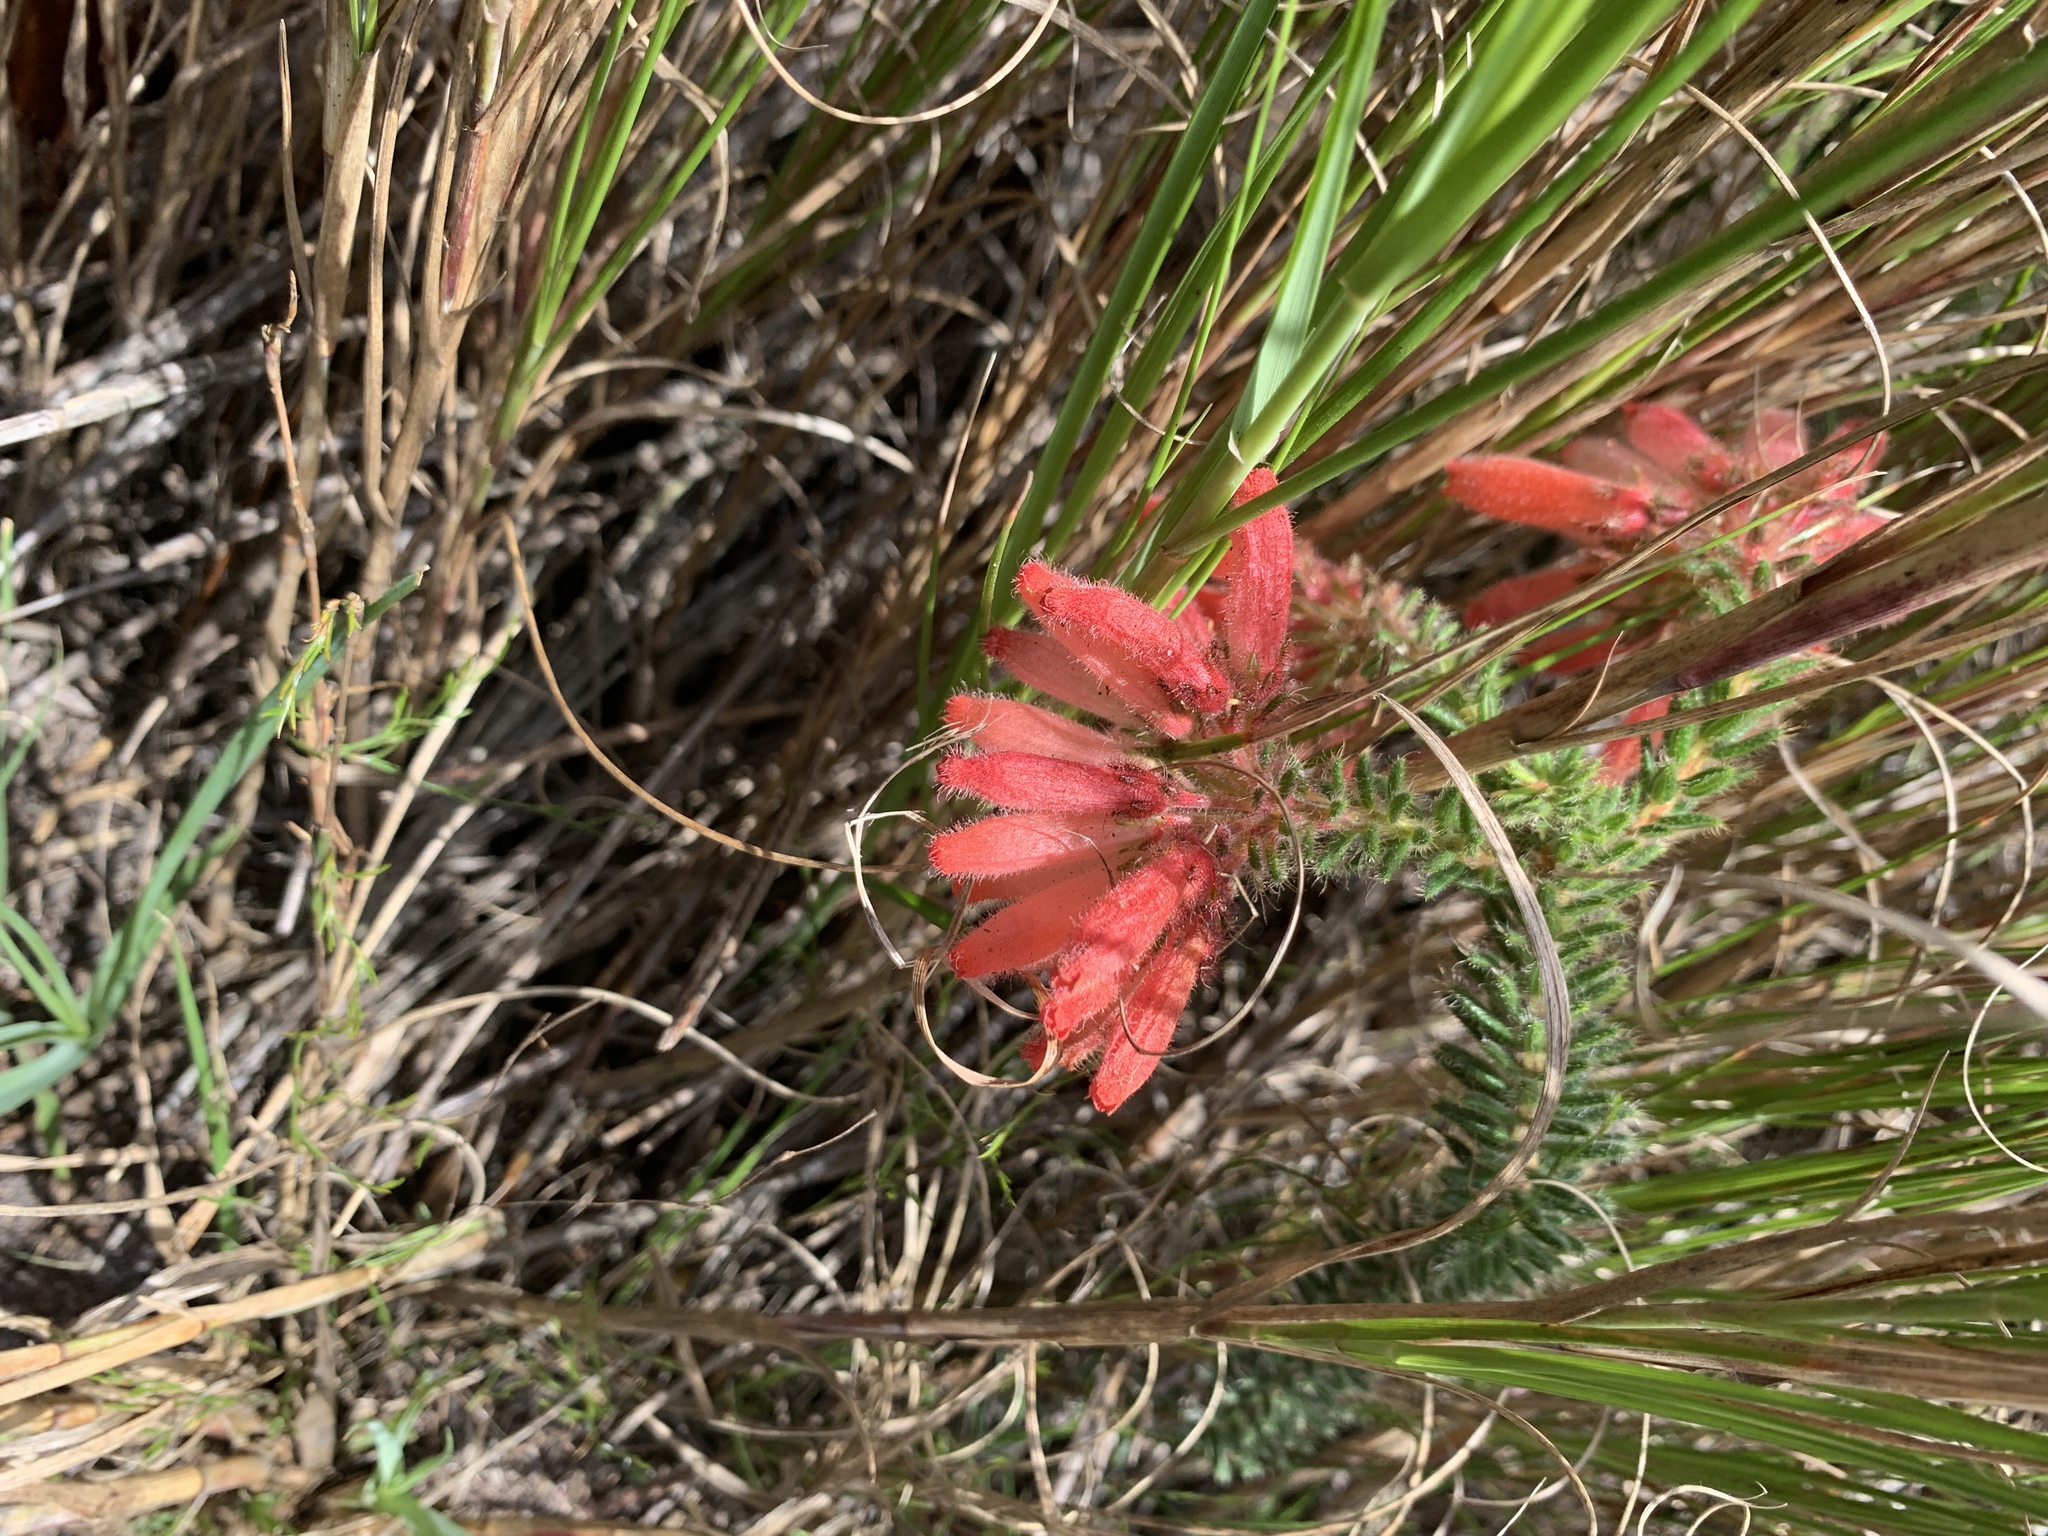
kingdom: Plantae
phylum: Tracheophyta
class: Magnoliopsida
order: Ericales
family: Ericaceae
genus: Erica
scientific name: Erica cerinthoides
